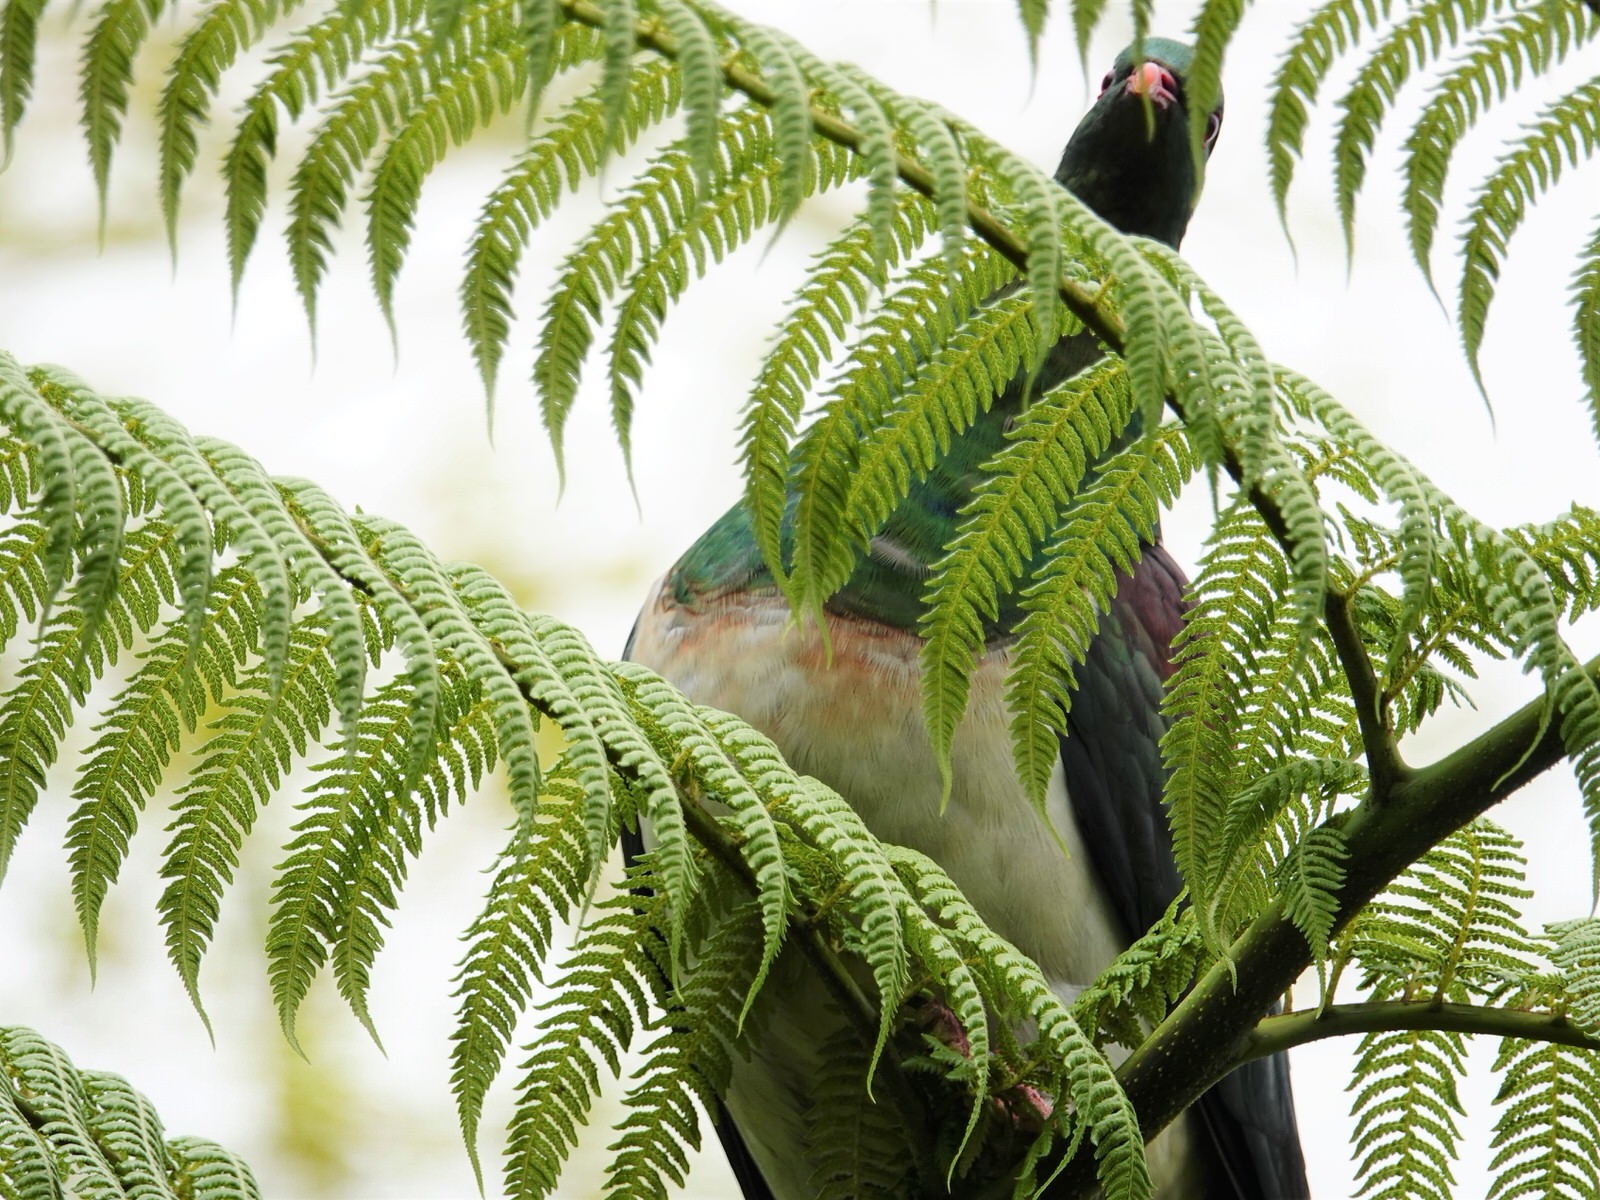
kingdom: Animalia
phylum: Chordata
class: Aves
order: Columbiformes
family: Columbidae
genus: Hemiphaga
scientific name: Hemiphaga novaeseelandiae
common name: New zealand pigeon
